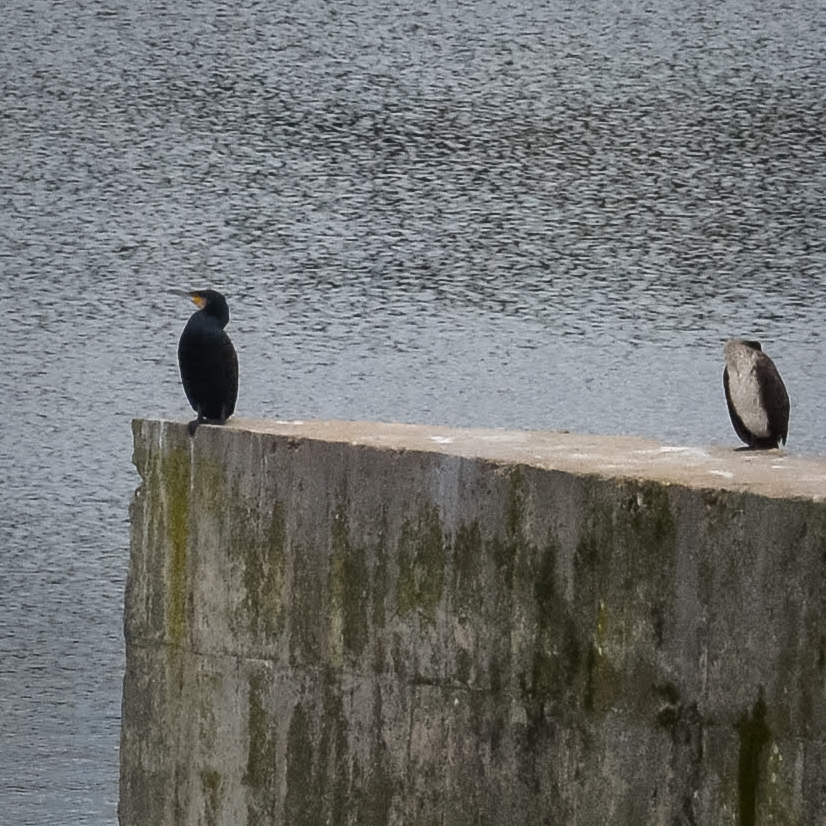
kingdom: Animalia
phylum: Chordata
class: Aves
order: Suliformes
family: Phalacrocoracidae
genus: Phalacrocorax
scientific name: Phalacrocorax carbo
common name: Great cormorant
